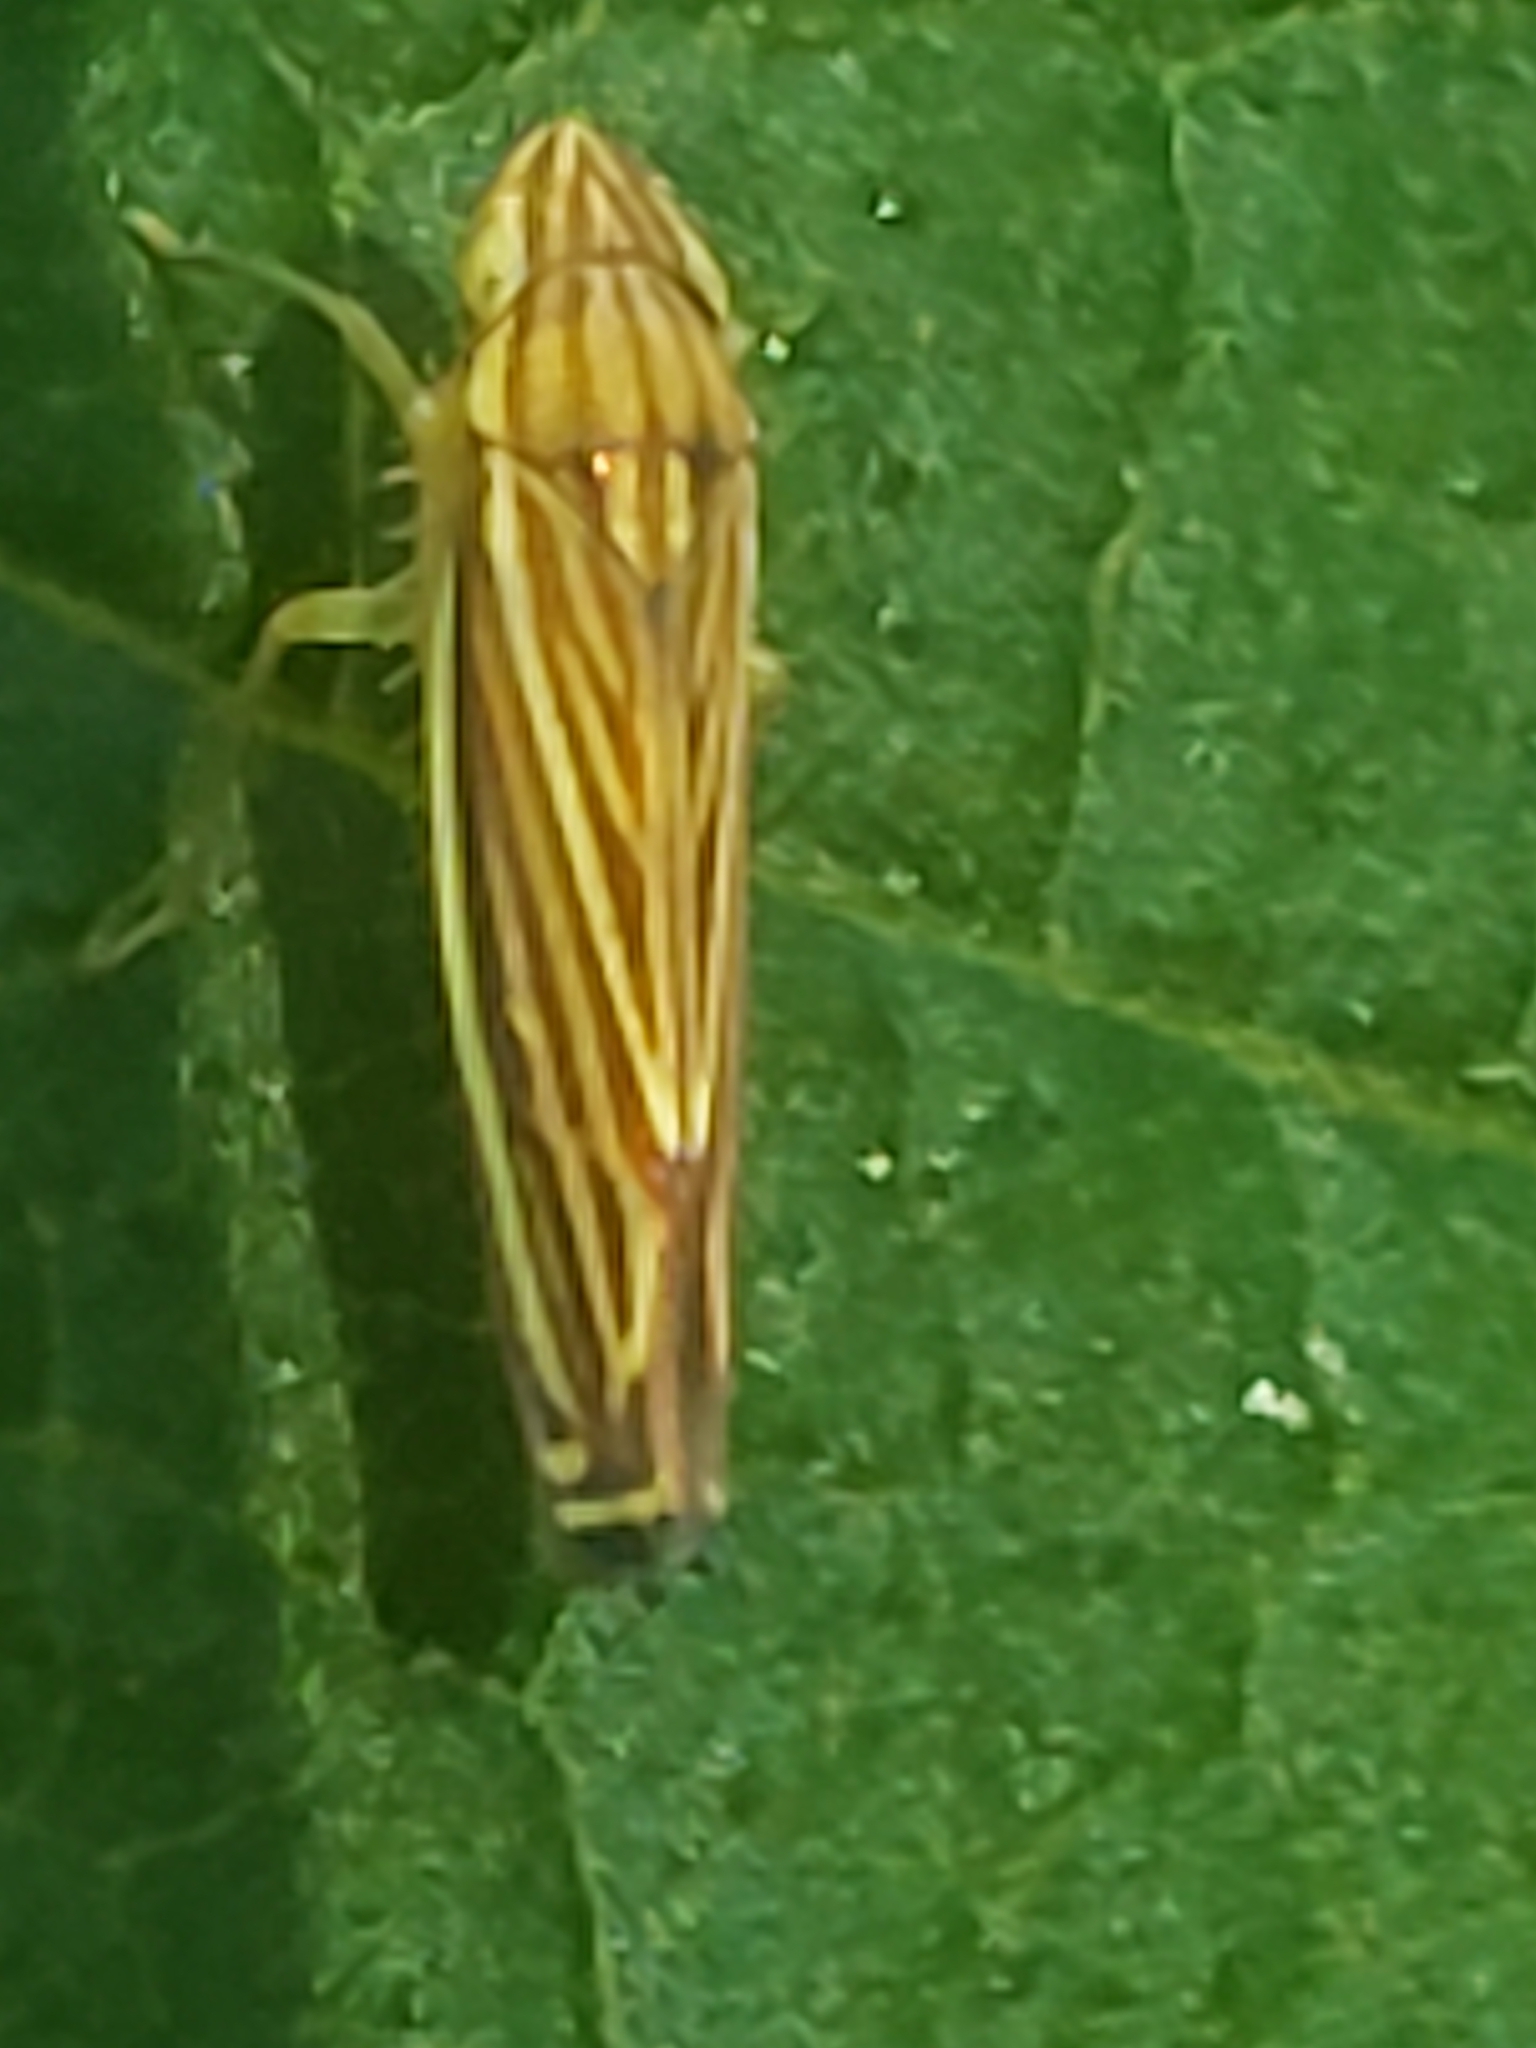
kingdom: Animalia
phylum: Arthropoda
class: Insecta
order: Hemiptera
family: Cicadellidae
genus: Sibovia
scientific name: Sibovia occatoria
